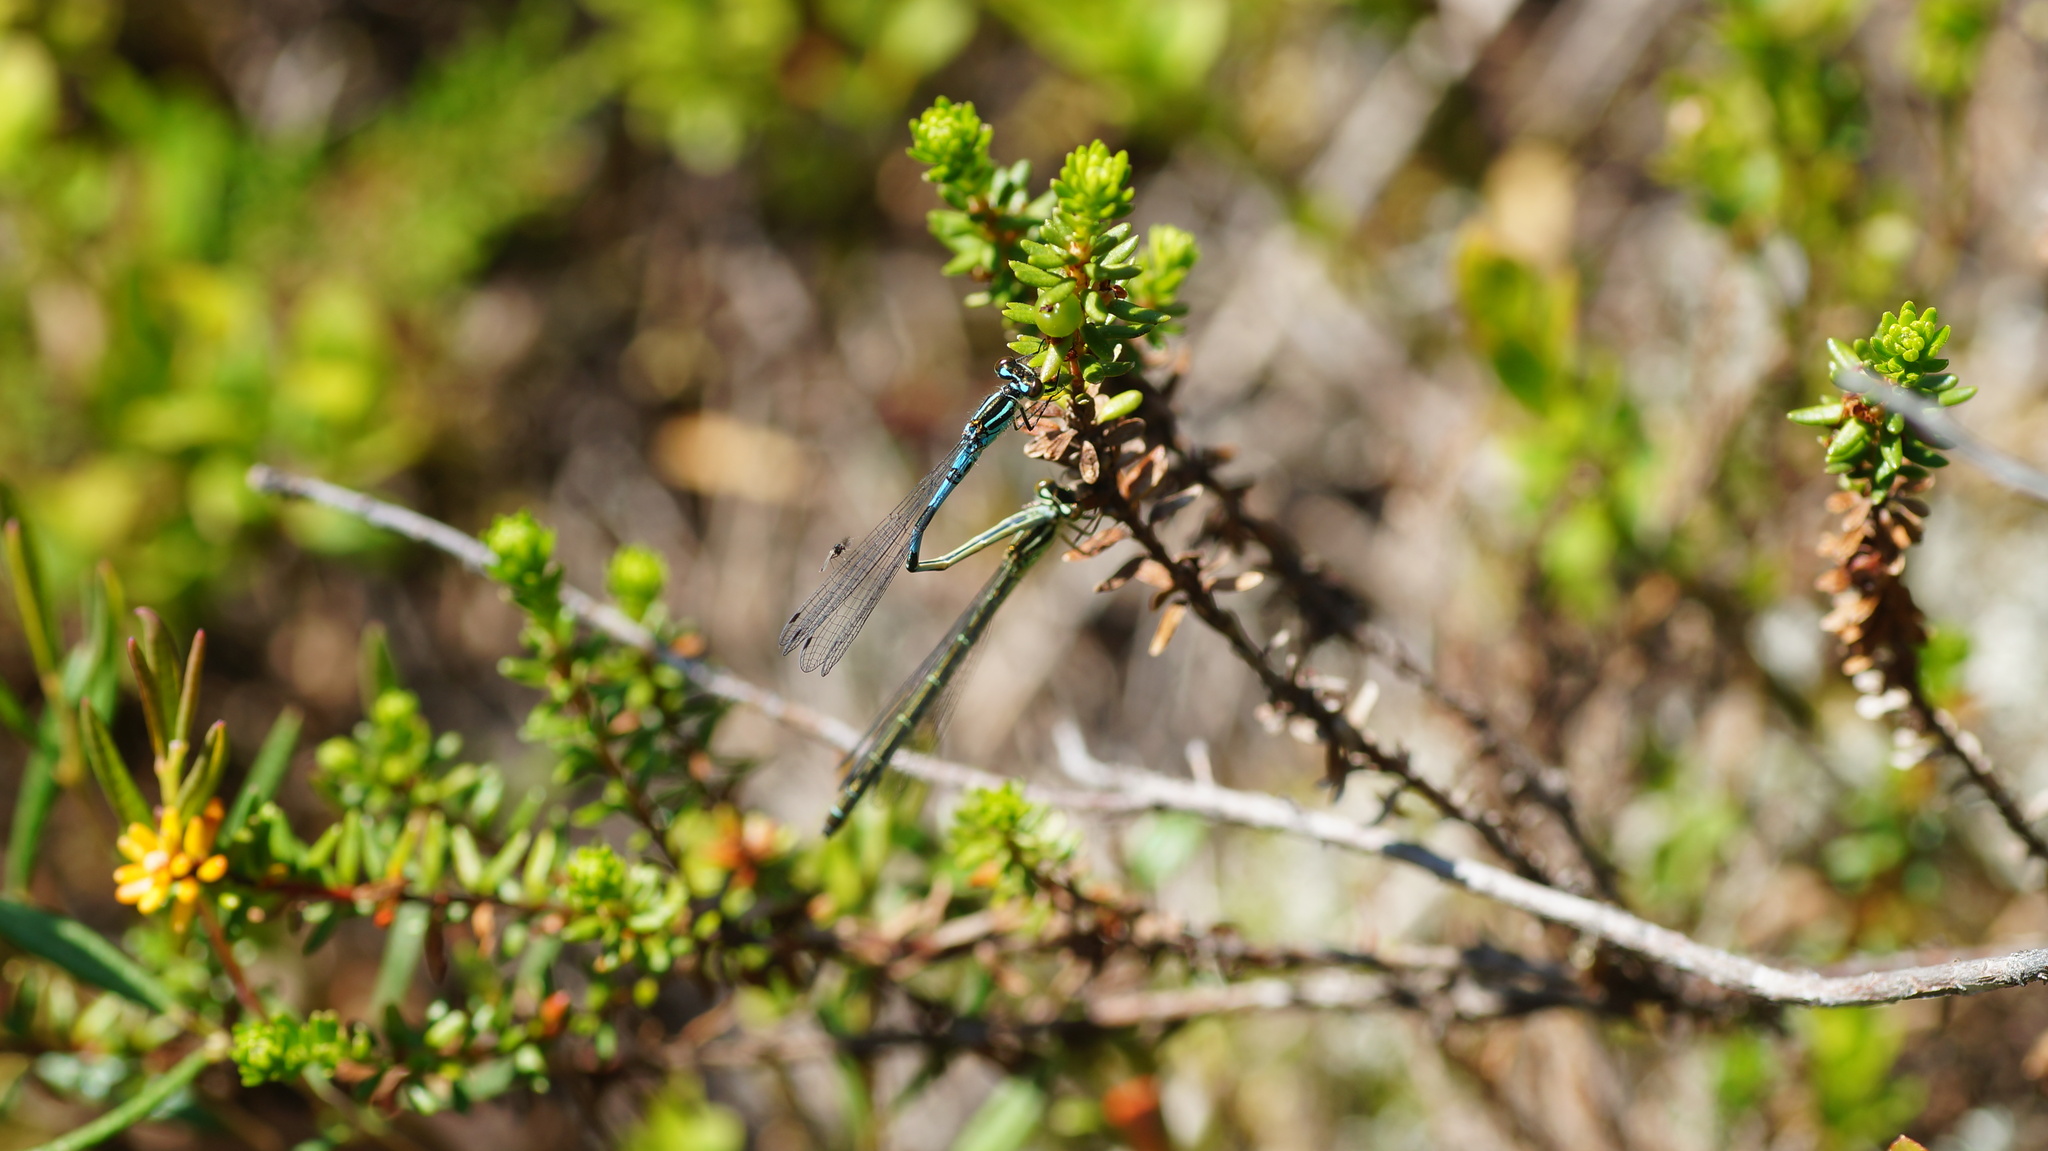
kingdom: Animalia
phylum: Arthropoda
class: Insecta
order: Odonata
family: Coenagrionidae
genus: Coenagrion
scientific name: Coenagrion hastulatum
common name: Spearhead bluet
